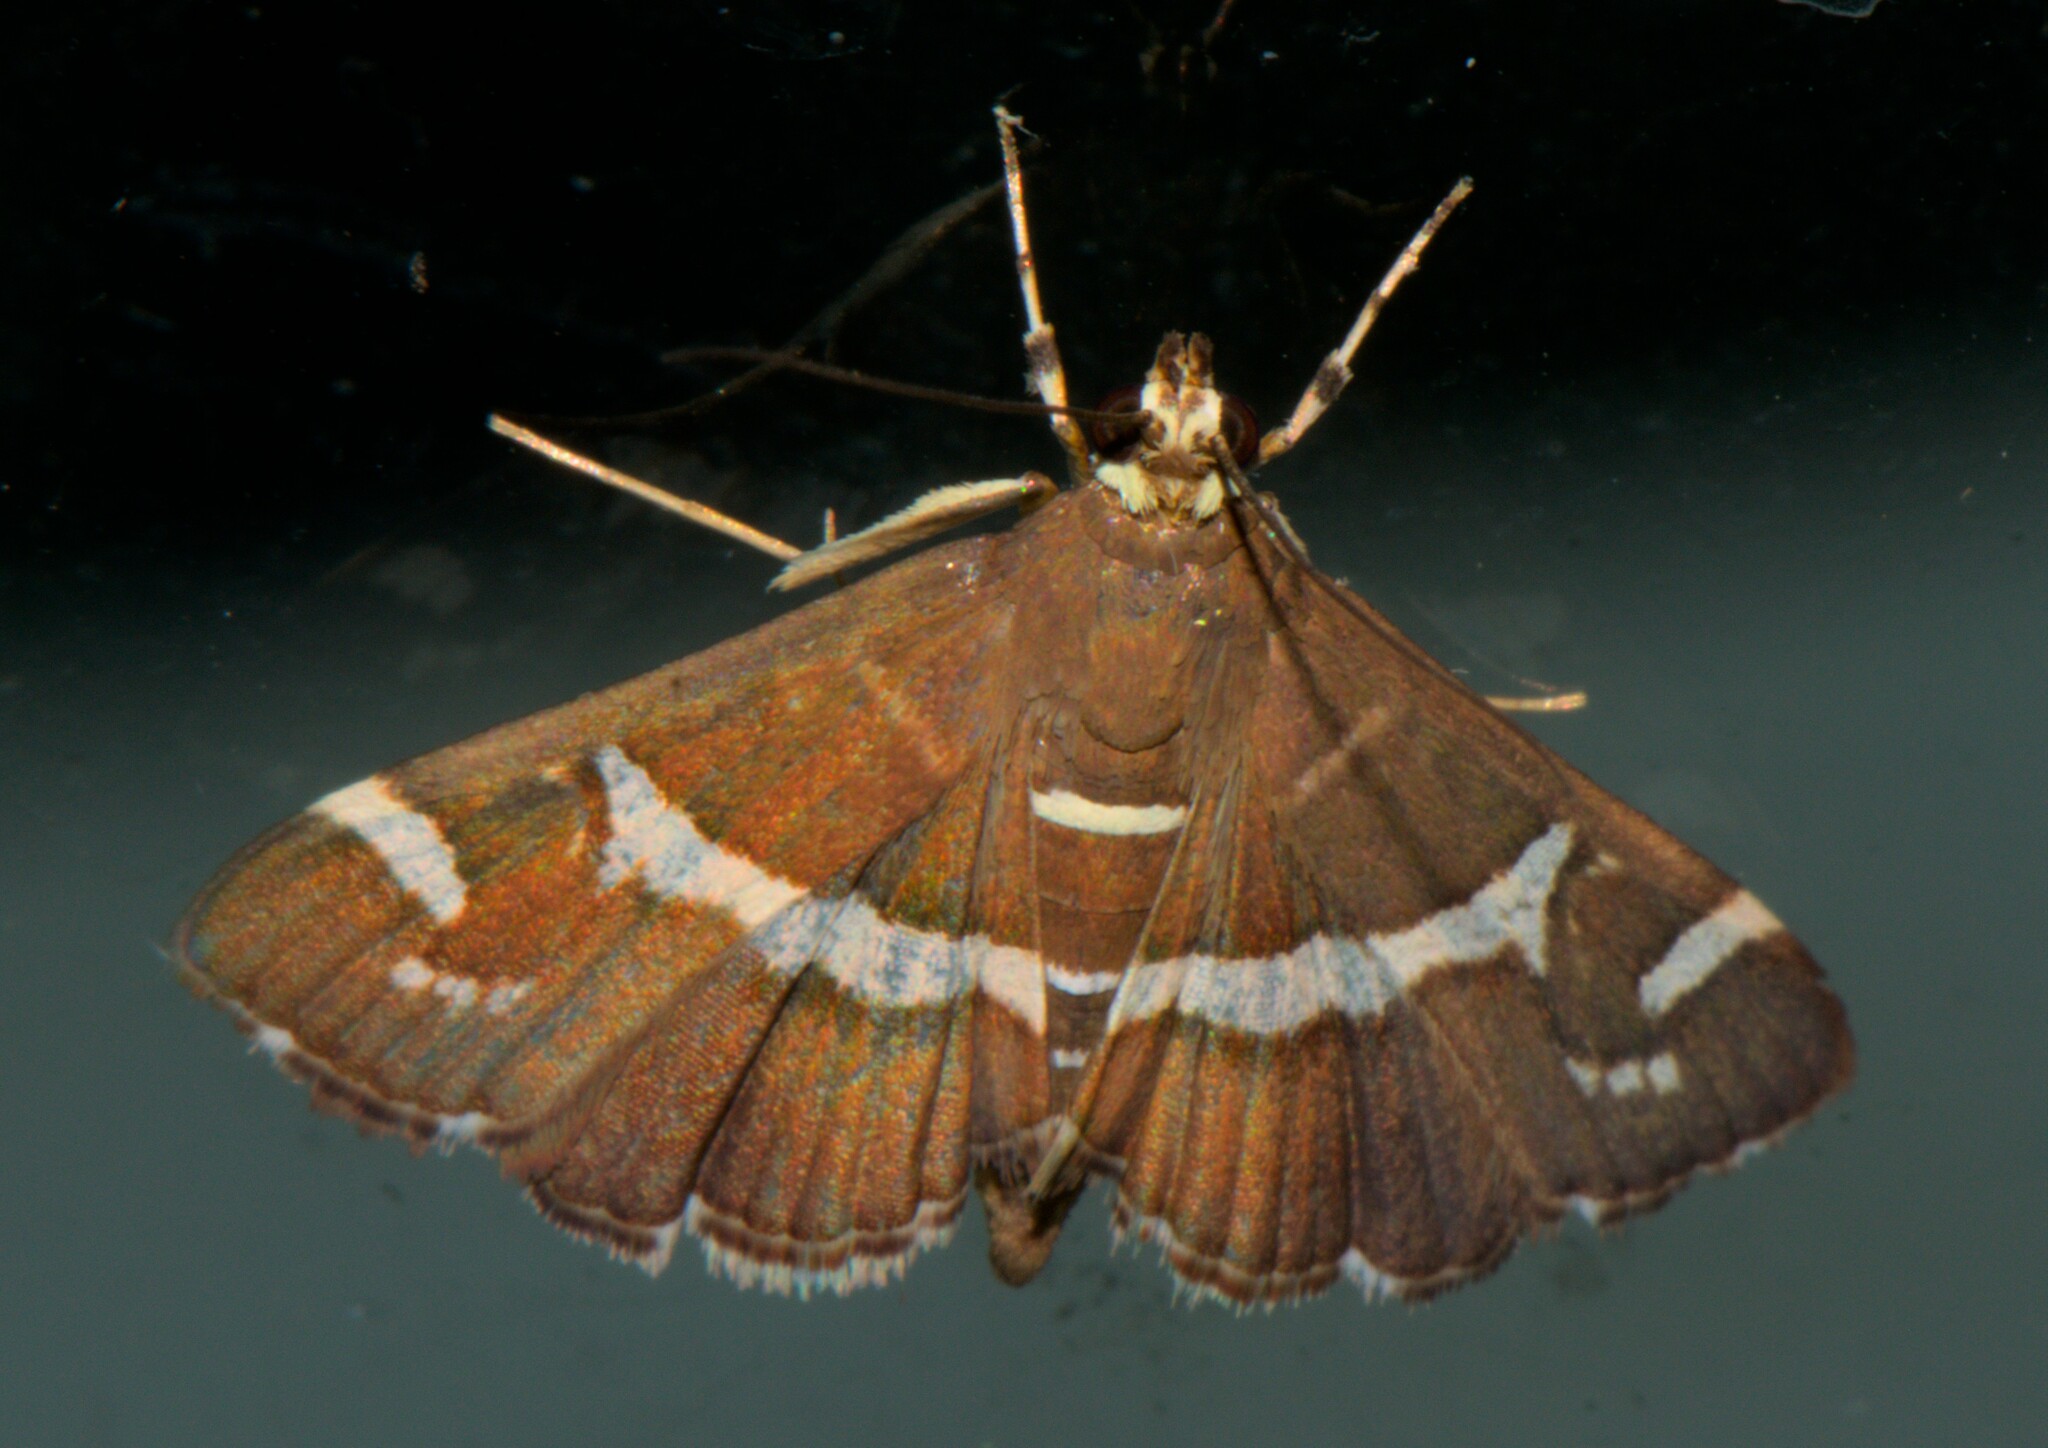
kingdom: Animalia
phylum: Arthropoda
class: Insecta
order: Lepidoptera
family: Crambidae
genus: Spoladea
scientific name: Spoladea recurvalis
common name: Beet webworm moth
